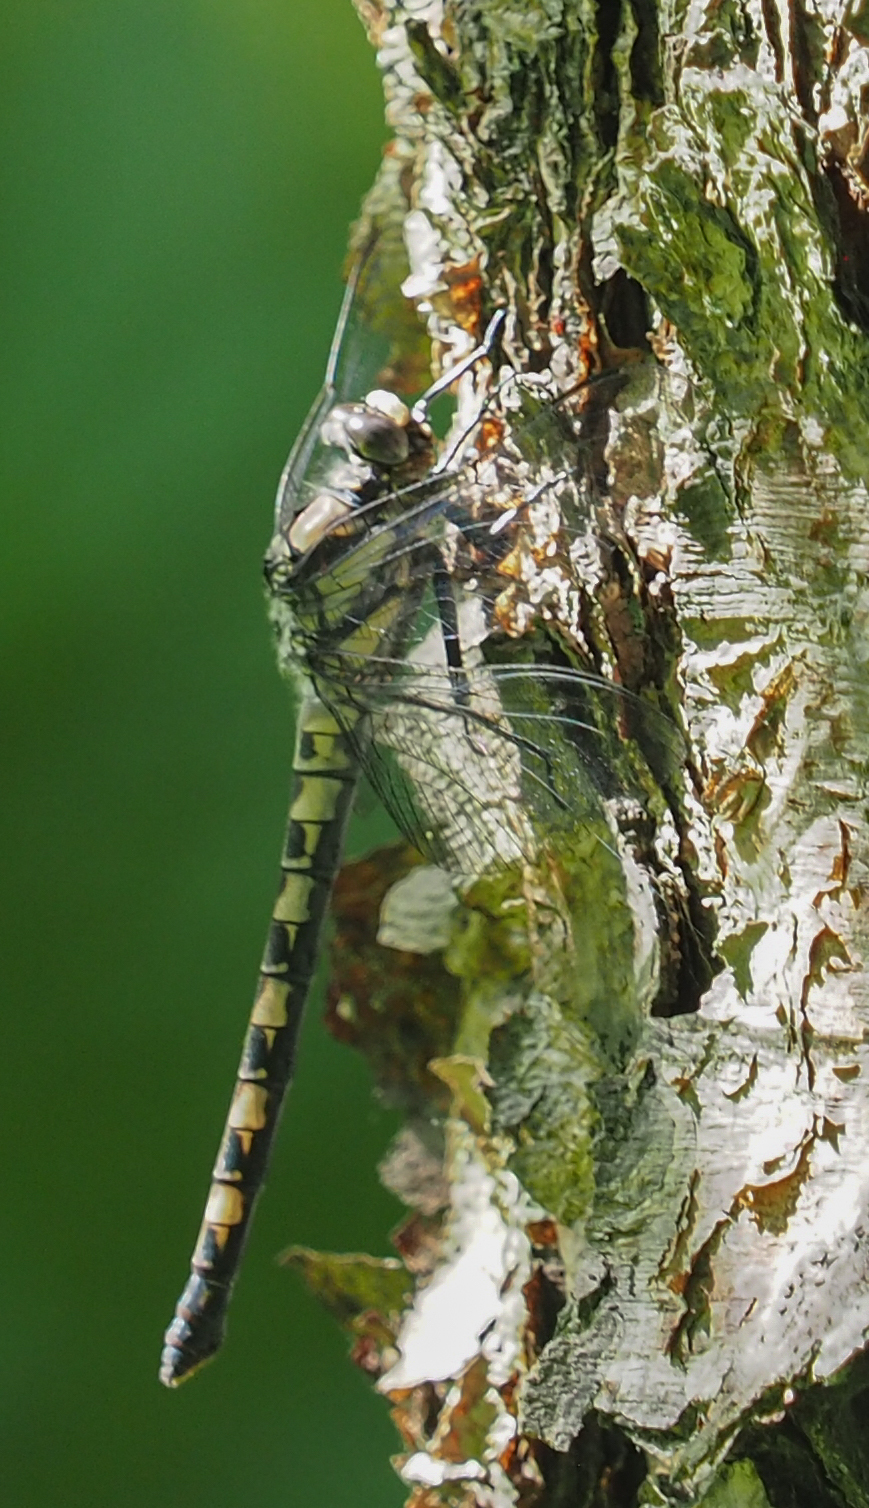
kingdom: Animalia
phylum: Arthropoda
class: Insecta
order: Odonata
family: Petaluridae
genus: Tachopteryx
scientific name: Tachopteryx thoreyi
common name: Gray petaltail
